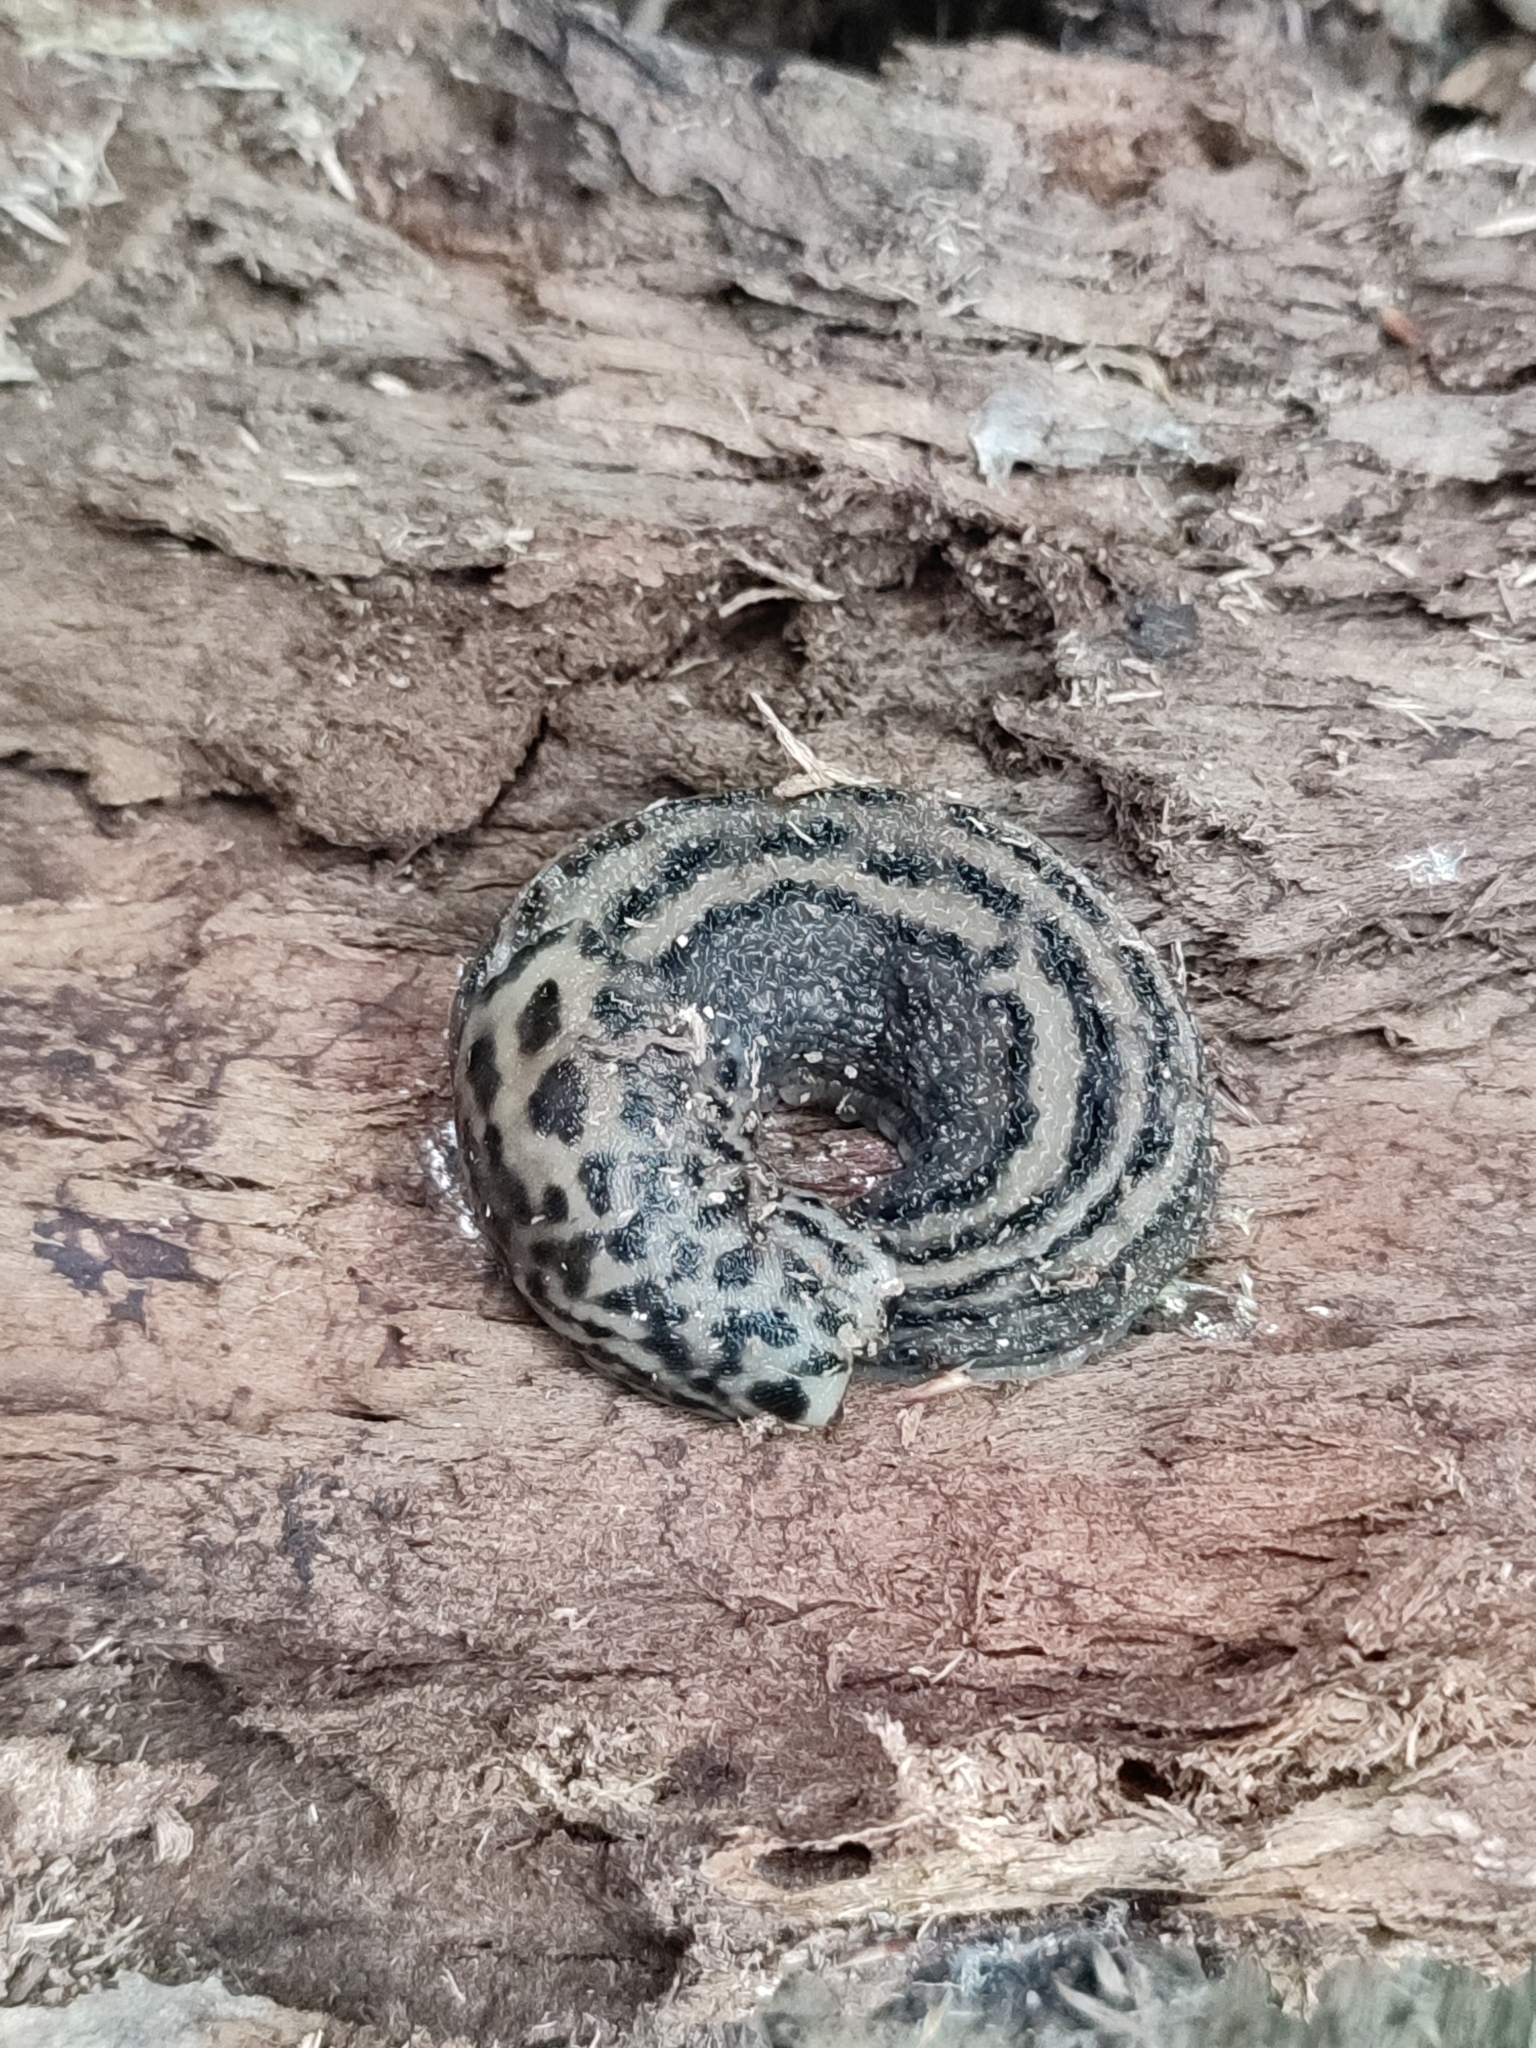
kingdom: Animalia
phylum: Mollusca
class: Gastropoda
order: Stylommatophora
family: Limacidae
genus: Limax
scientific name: Limax maximus
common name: Great grey slug
